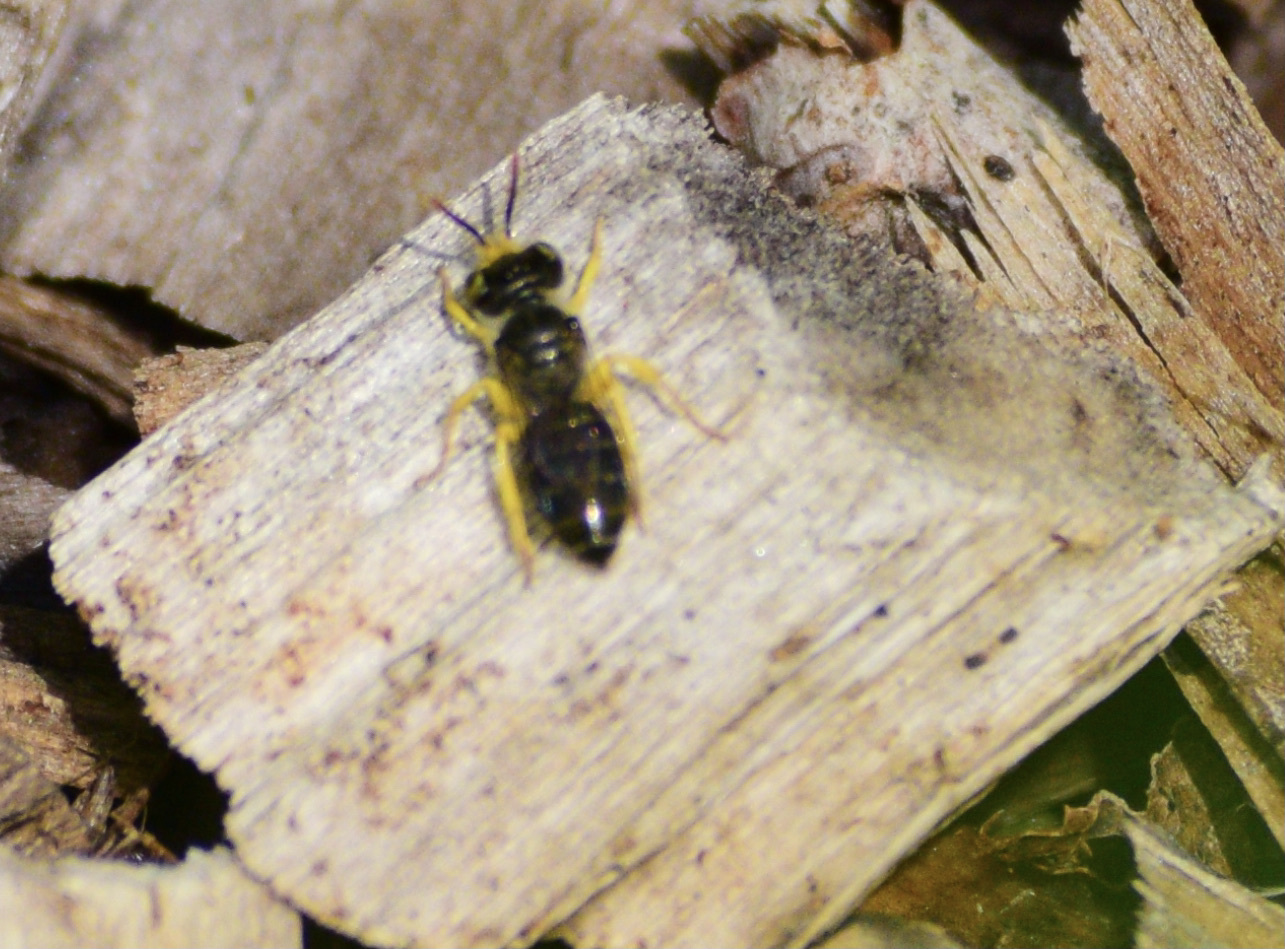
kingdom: Animalia
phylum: Arthropoda
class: Insecta
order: Hymenoptera
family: Andrenidae
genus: Calliopsis
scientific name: Calliopsis andreniformis
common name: Eastern calliopsis bee
